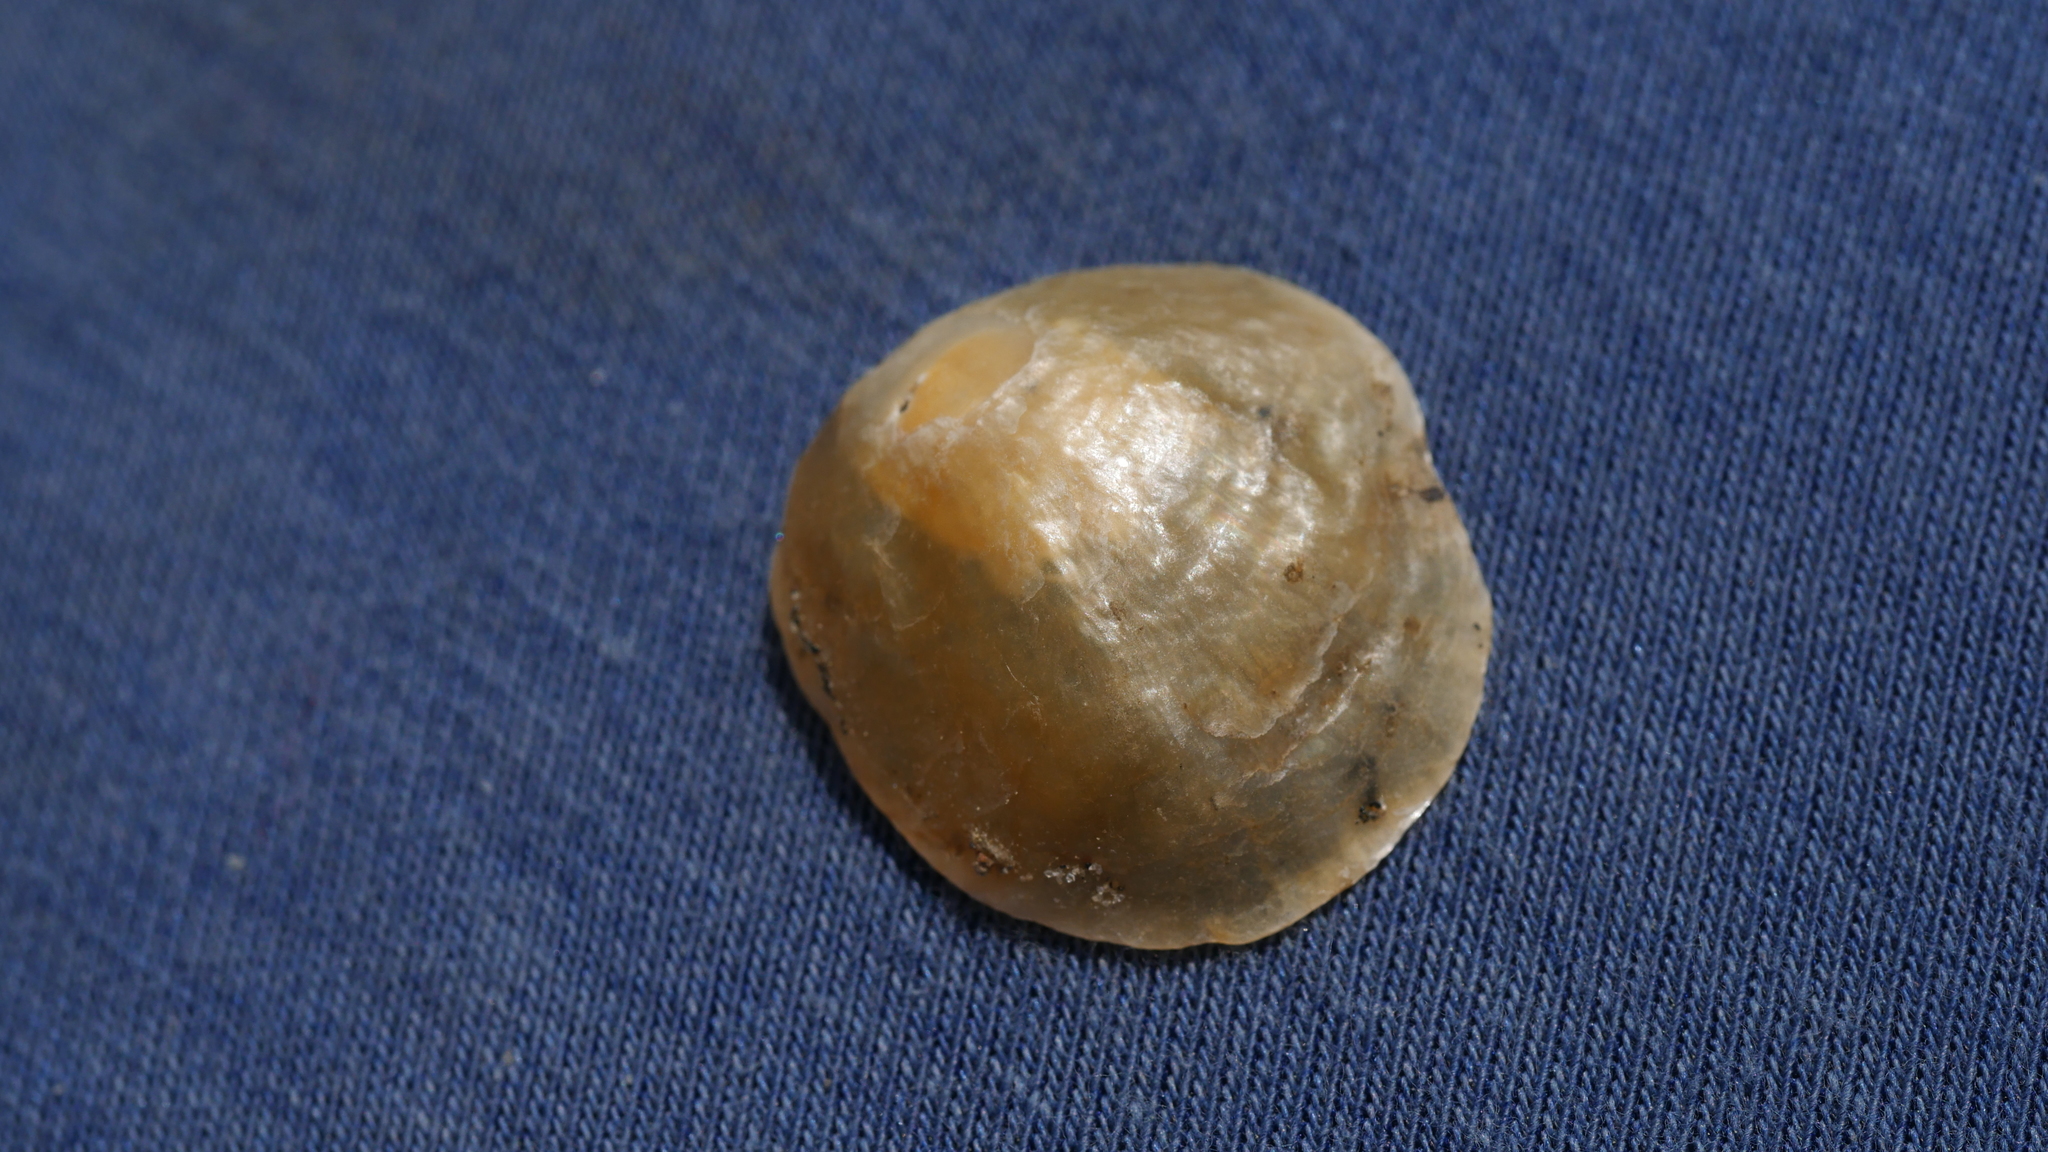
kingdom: Animalia
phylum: Mollusca
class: Bivalvia
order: Pectinida
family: Anomiidae
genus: Anomia
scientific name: Anomia simplex
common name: Common jingle shell
